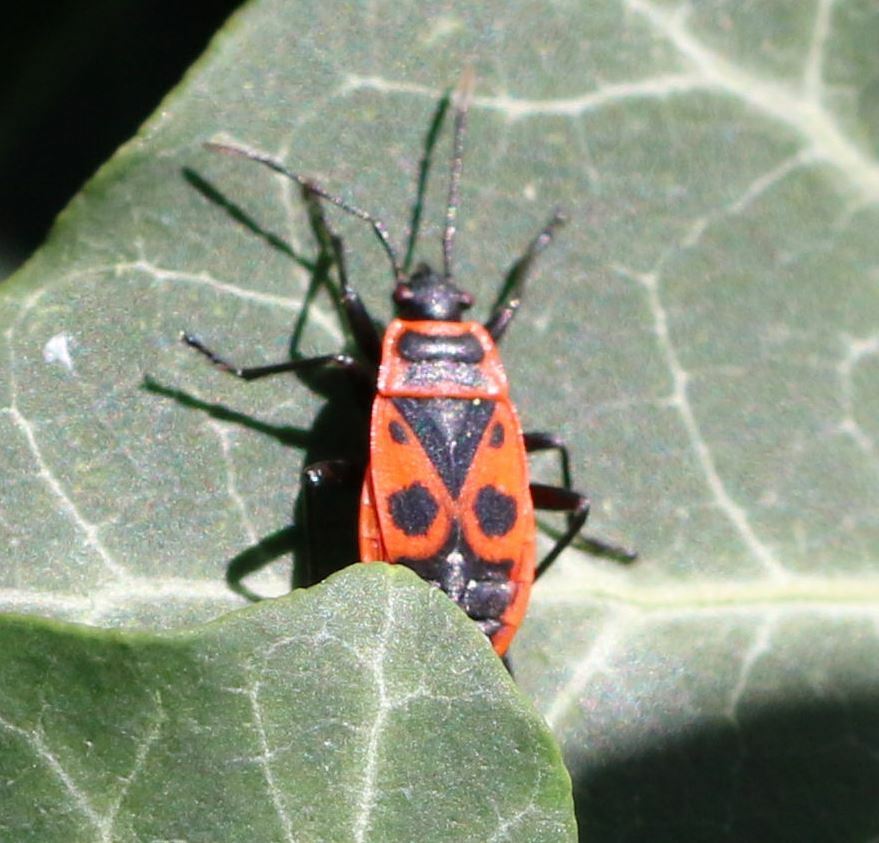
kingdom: Animalia
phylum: Arthropoda
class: Insecta
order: Hemiptera
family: Pyrrhocoridae
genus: Pyrrhocoris
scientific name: Pyrrhocoris apterus
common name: Firebug
